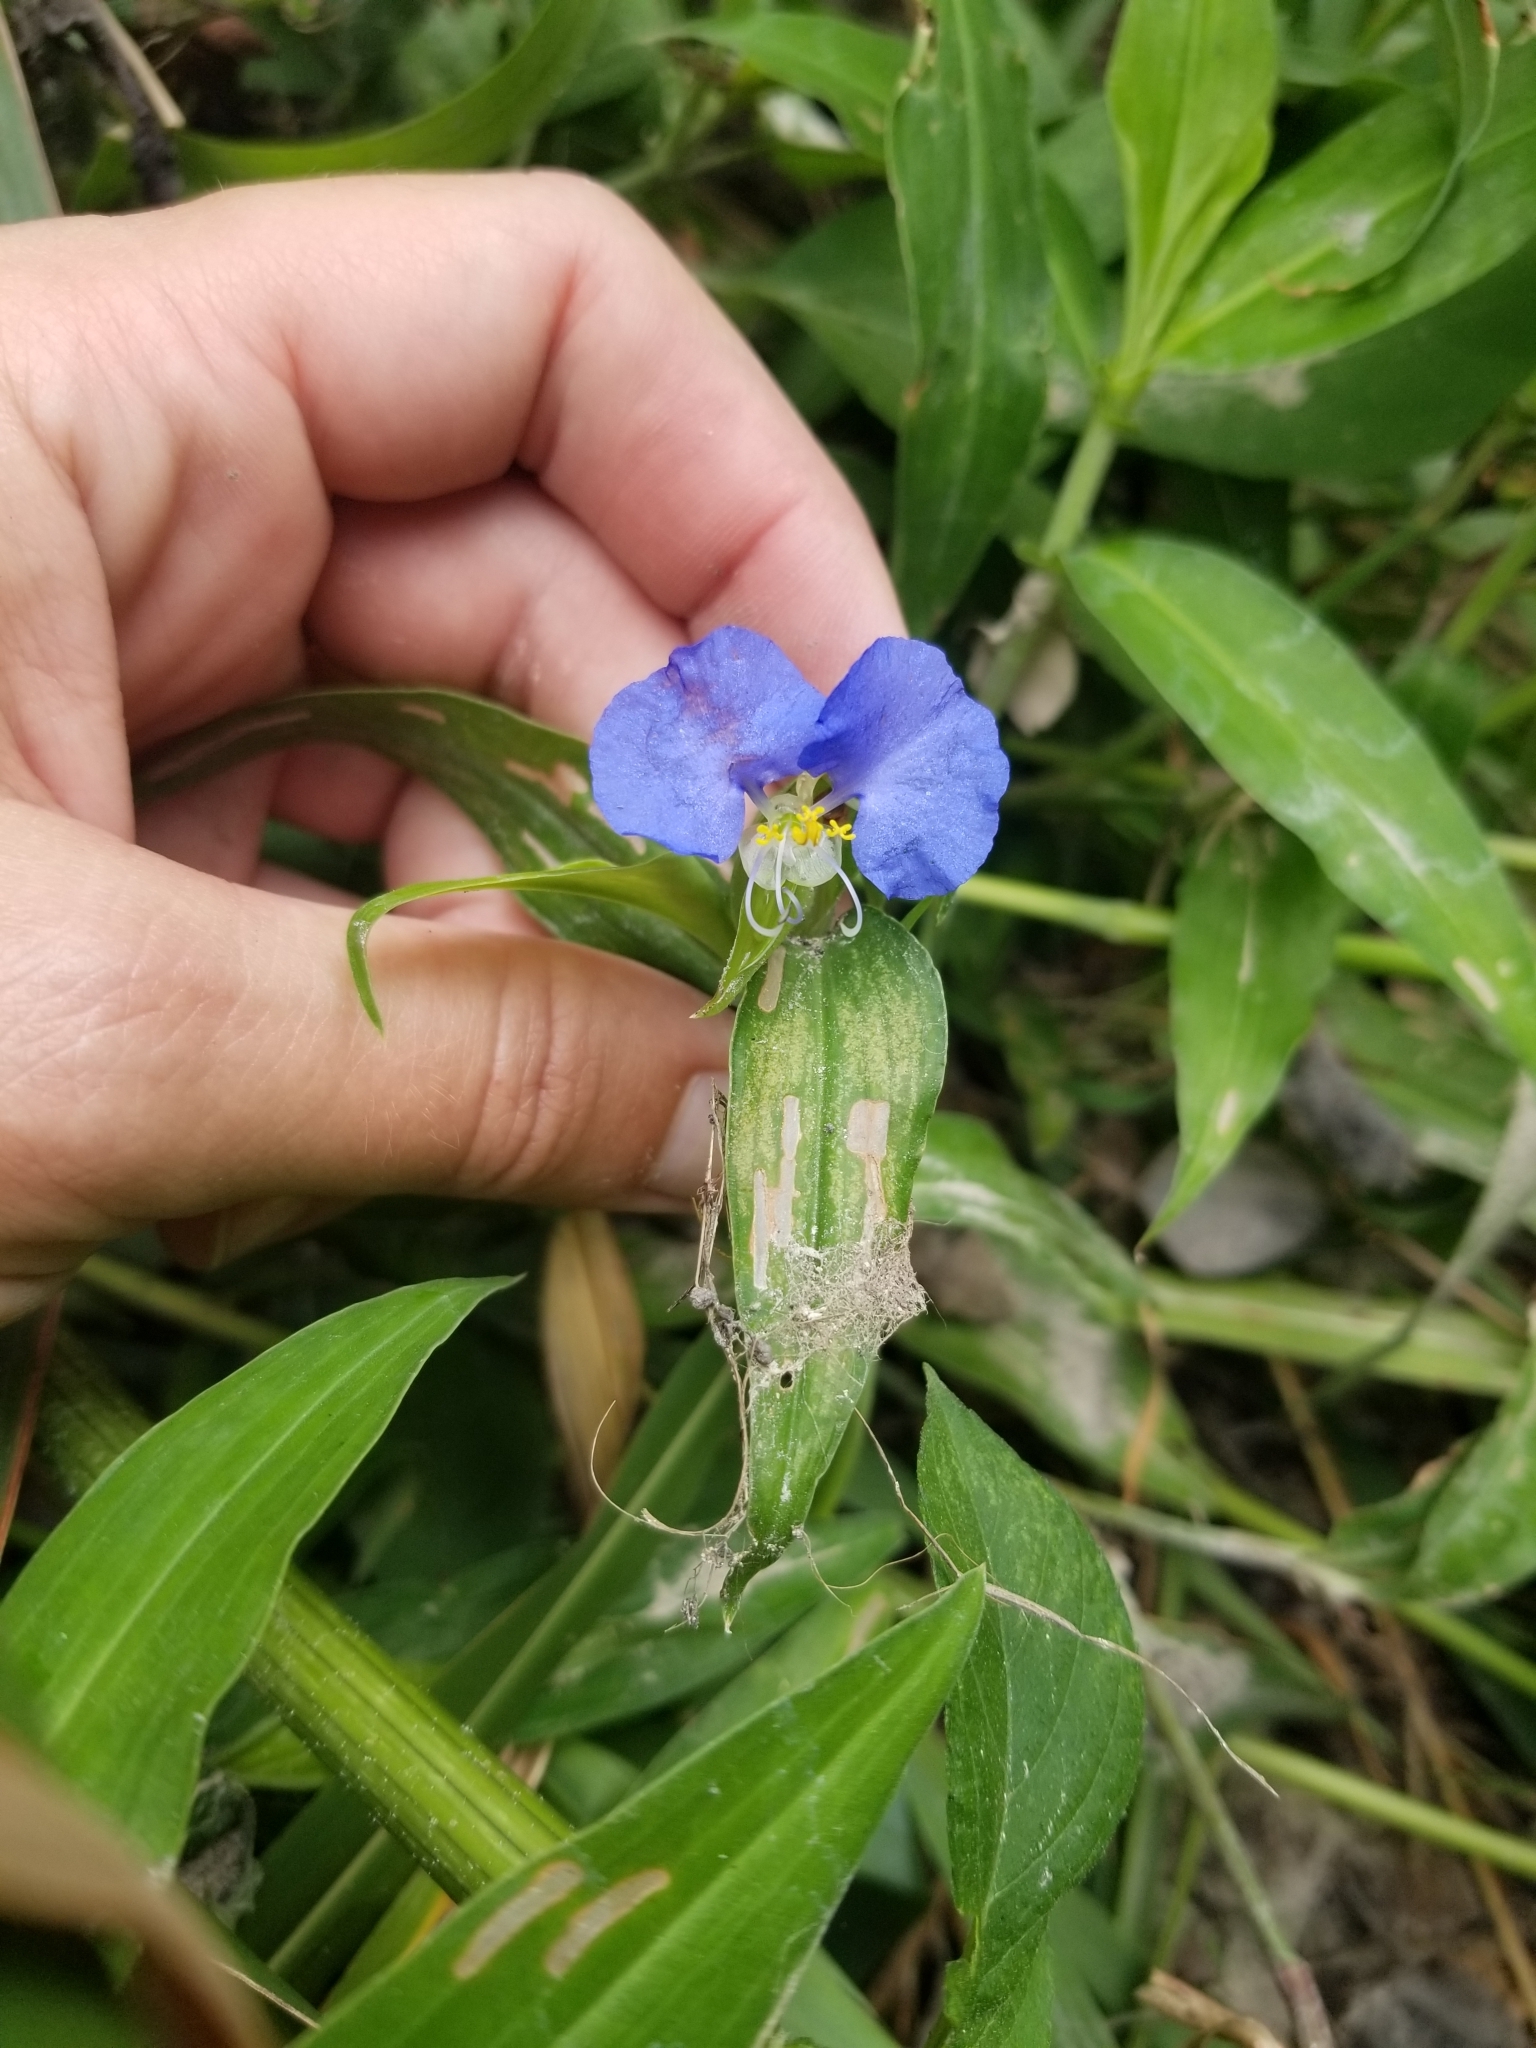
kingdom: Plantae
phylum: Tracheophyta
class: Liliopsida
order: Commelinales
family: Commelinaceae
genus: Commelina
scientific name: Commelina erecta
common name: Blousel blommetjie
